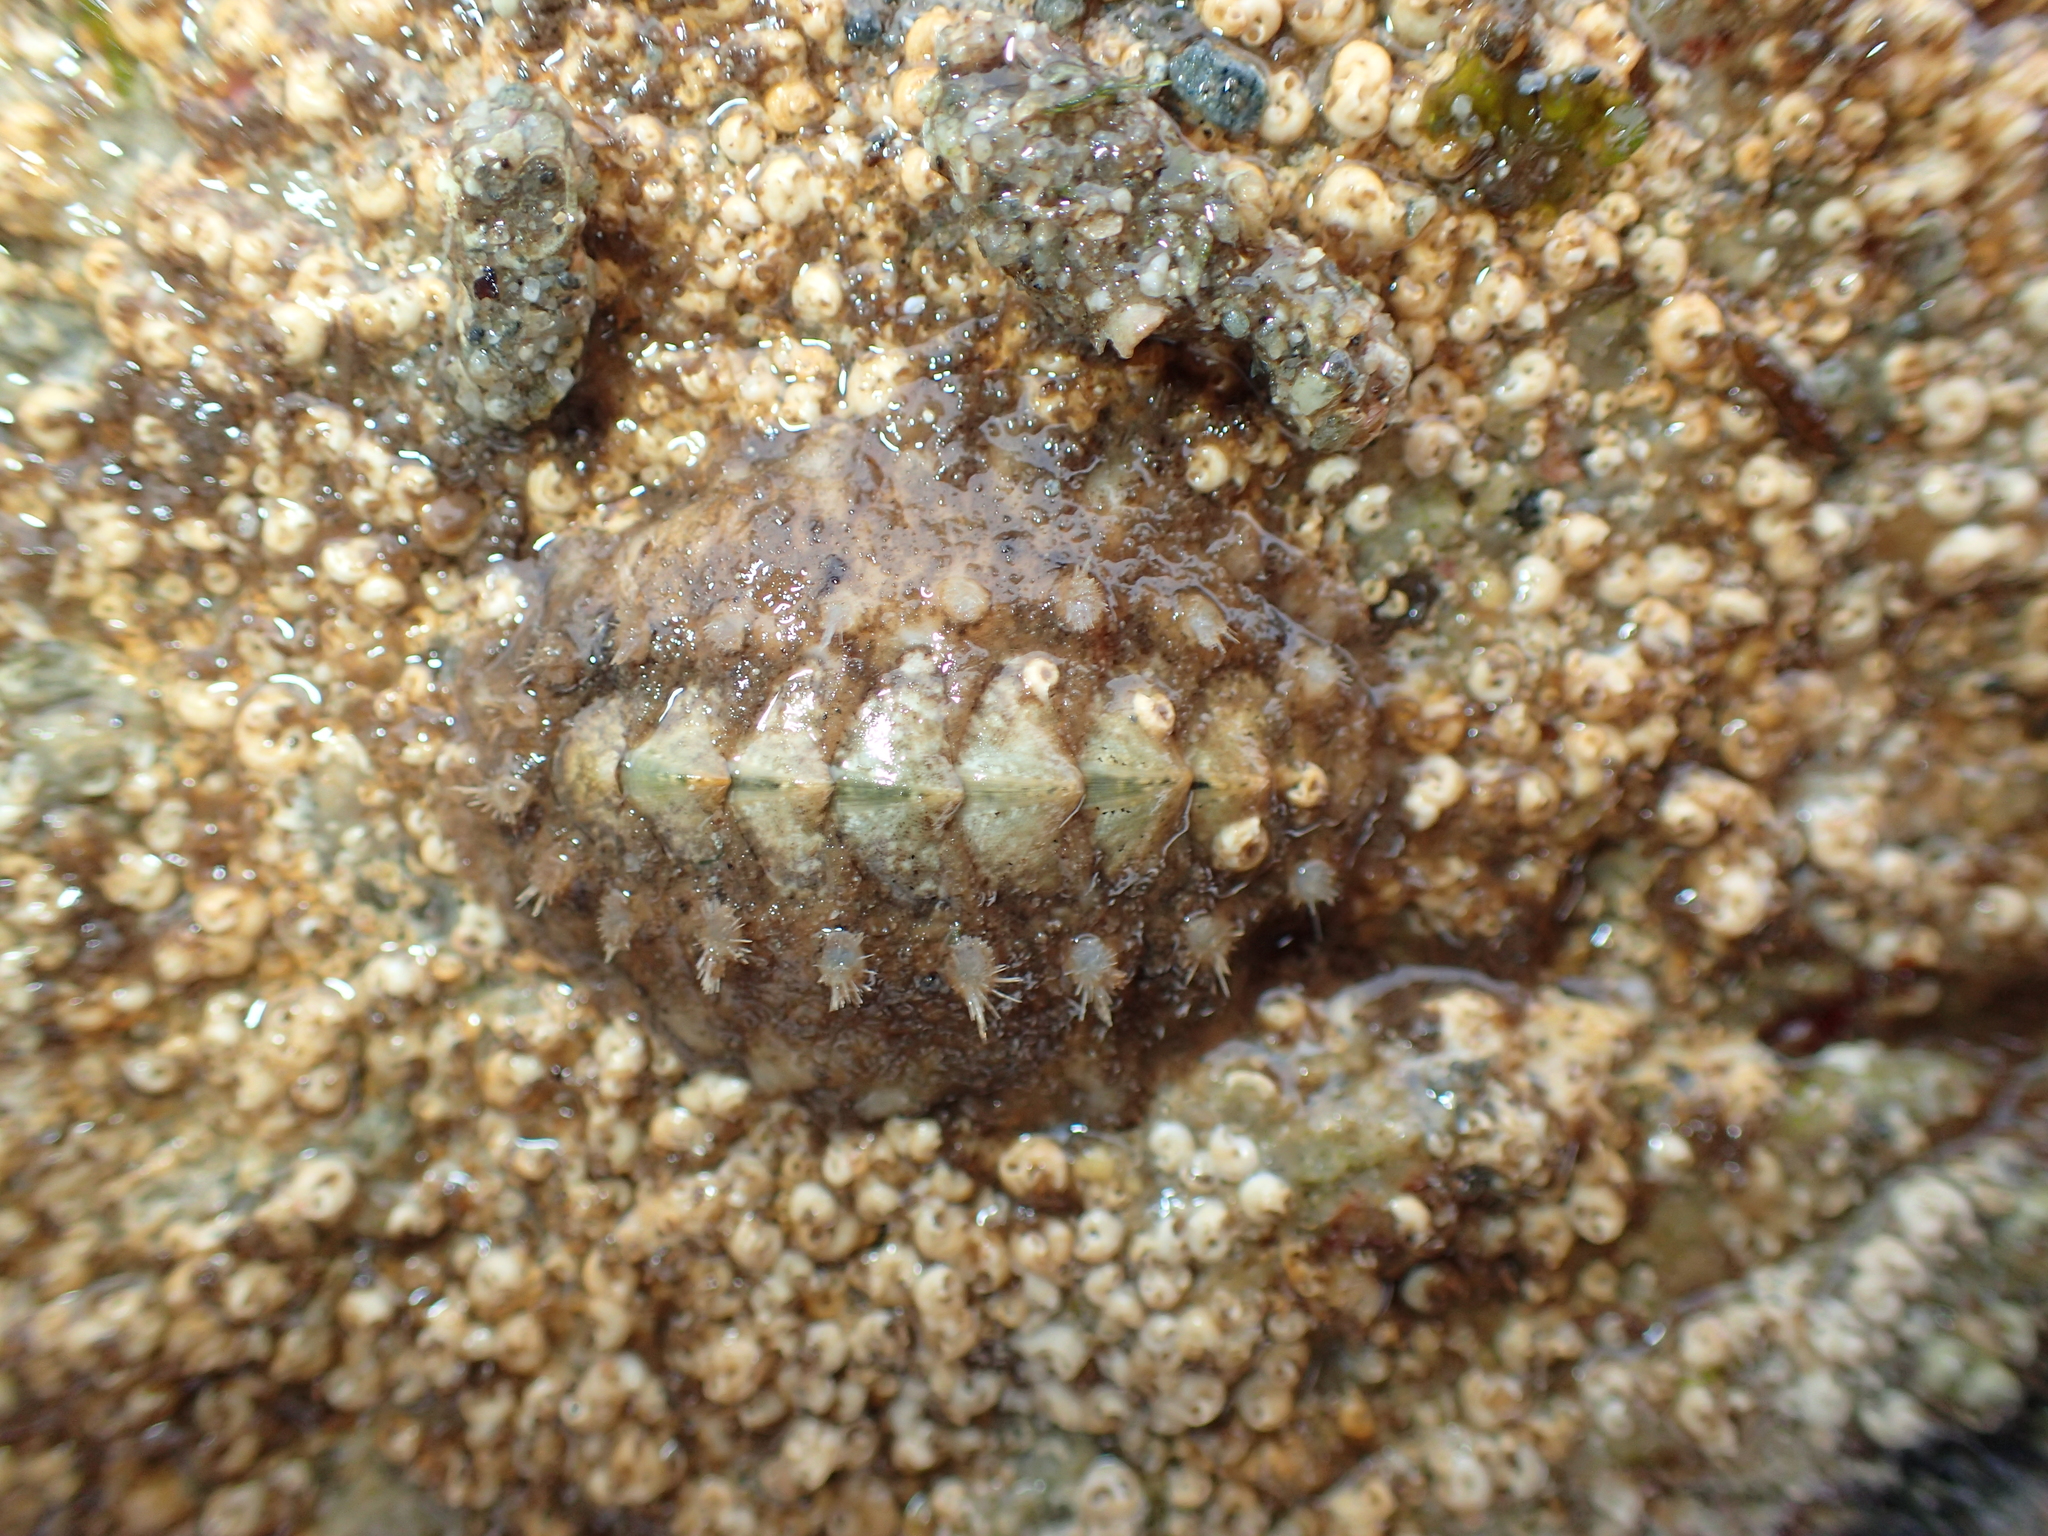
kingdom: Animalia
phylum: Mollusca
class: Polyplacophora
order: Chitonida
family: Acanthochitonidae
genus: Acanthochitona
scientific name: Acanthochitona fascicularis
